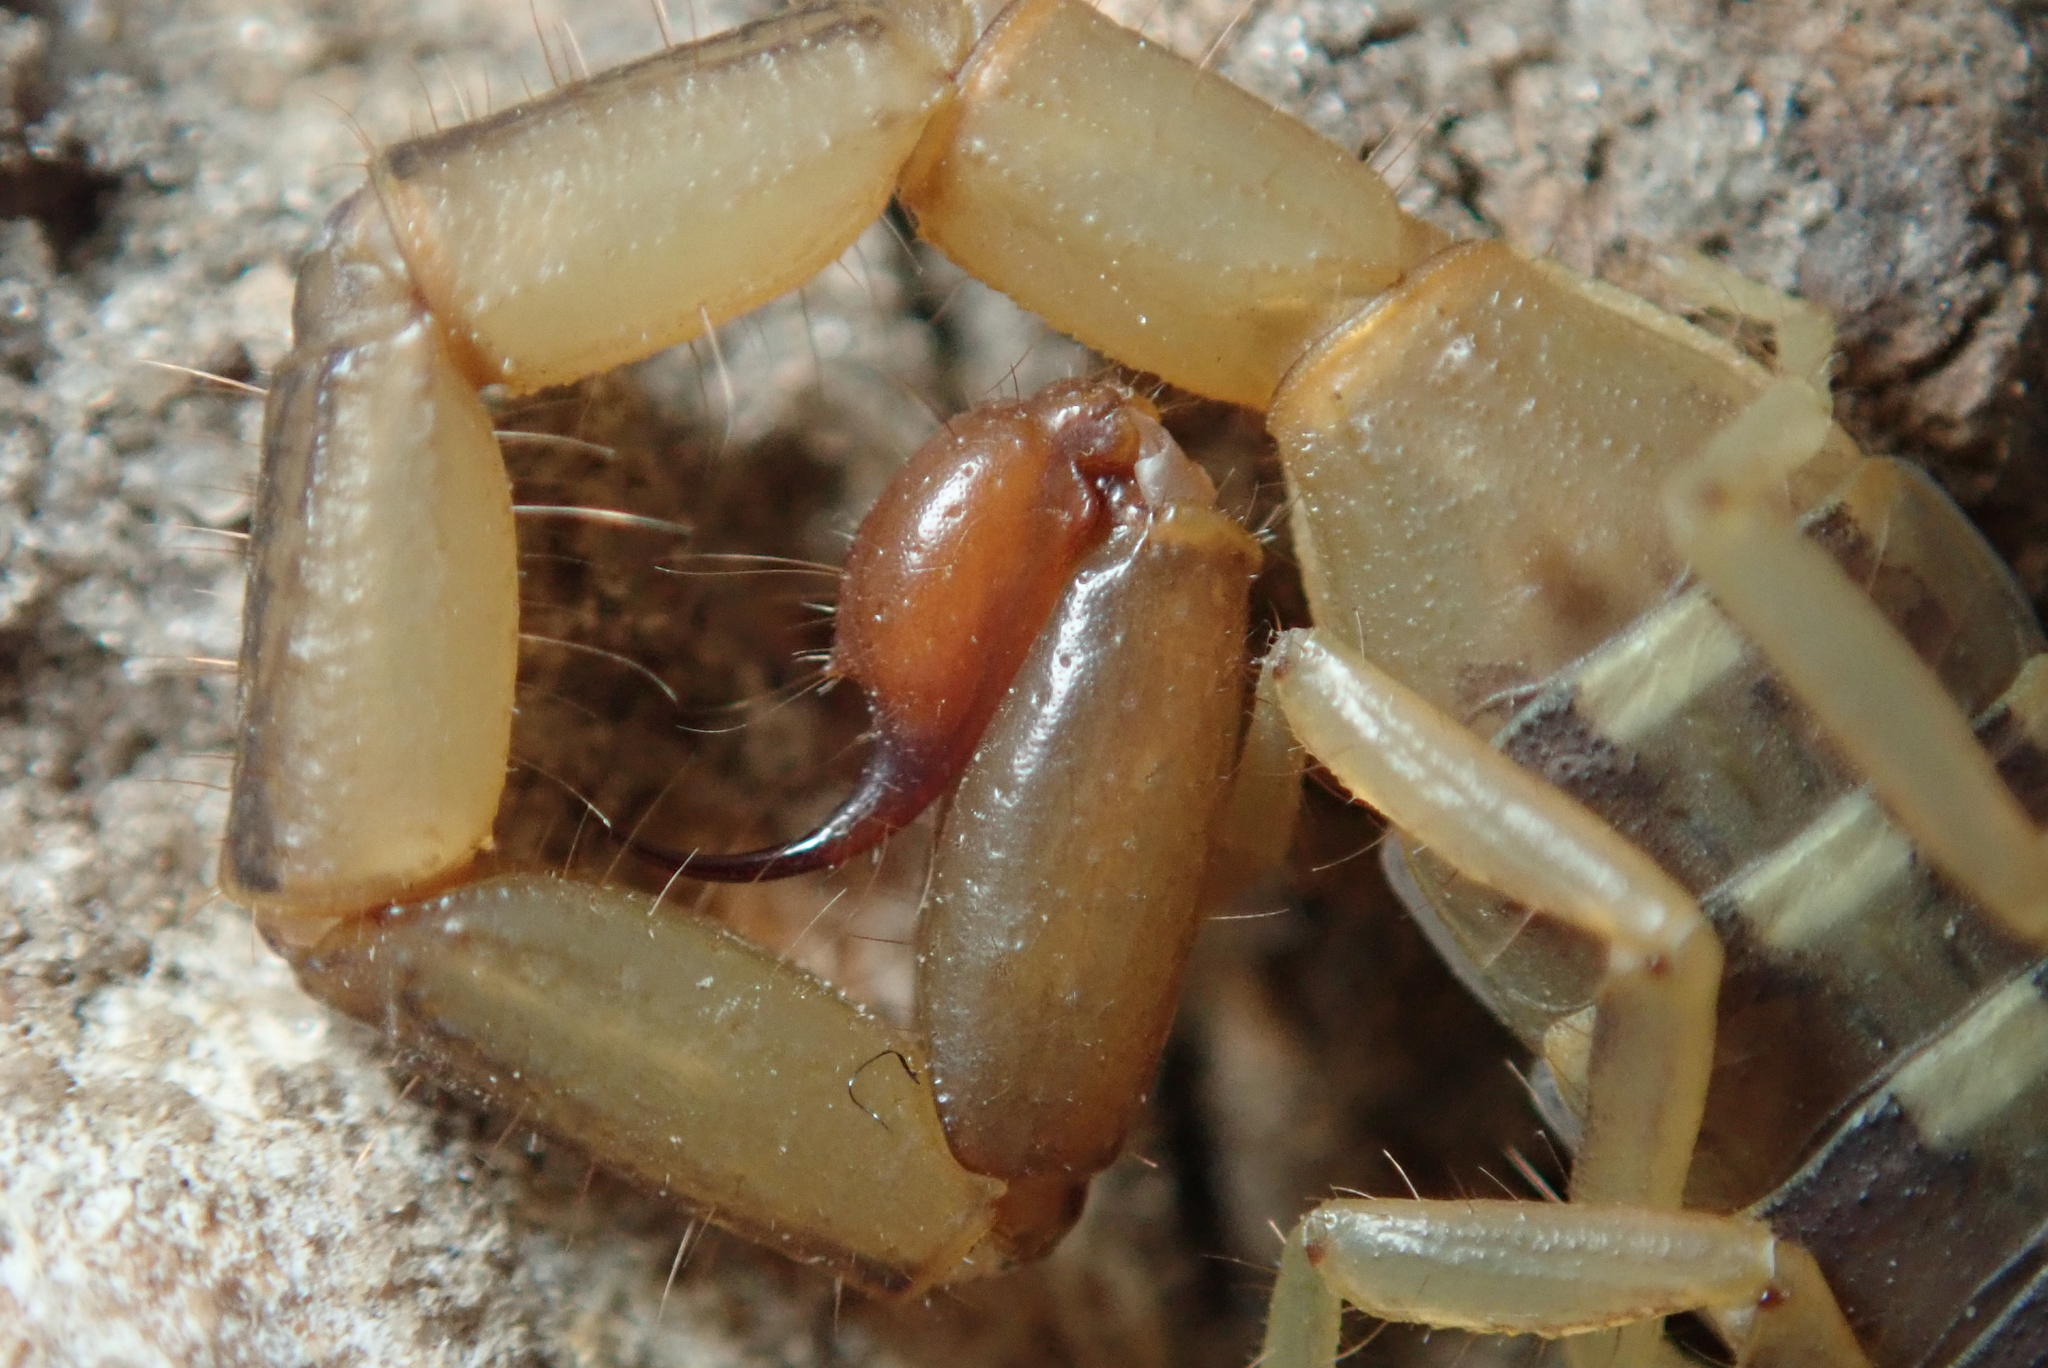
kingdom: Animalia
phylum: Arthropoda
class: Arachnida
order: Scorpiones
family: Buthidae
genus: Uroplectes
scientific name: Uroplectes vittatus
